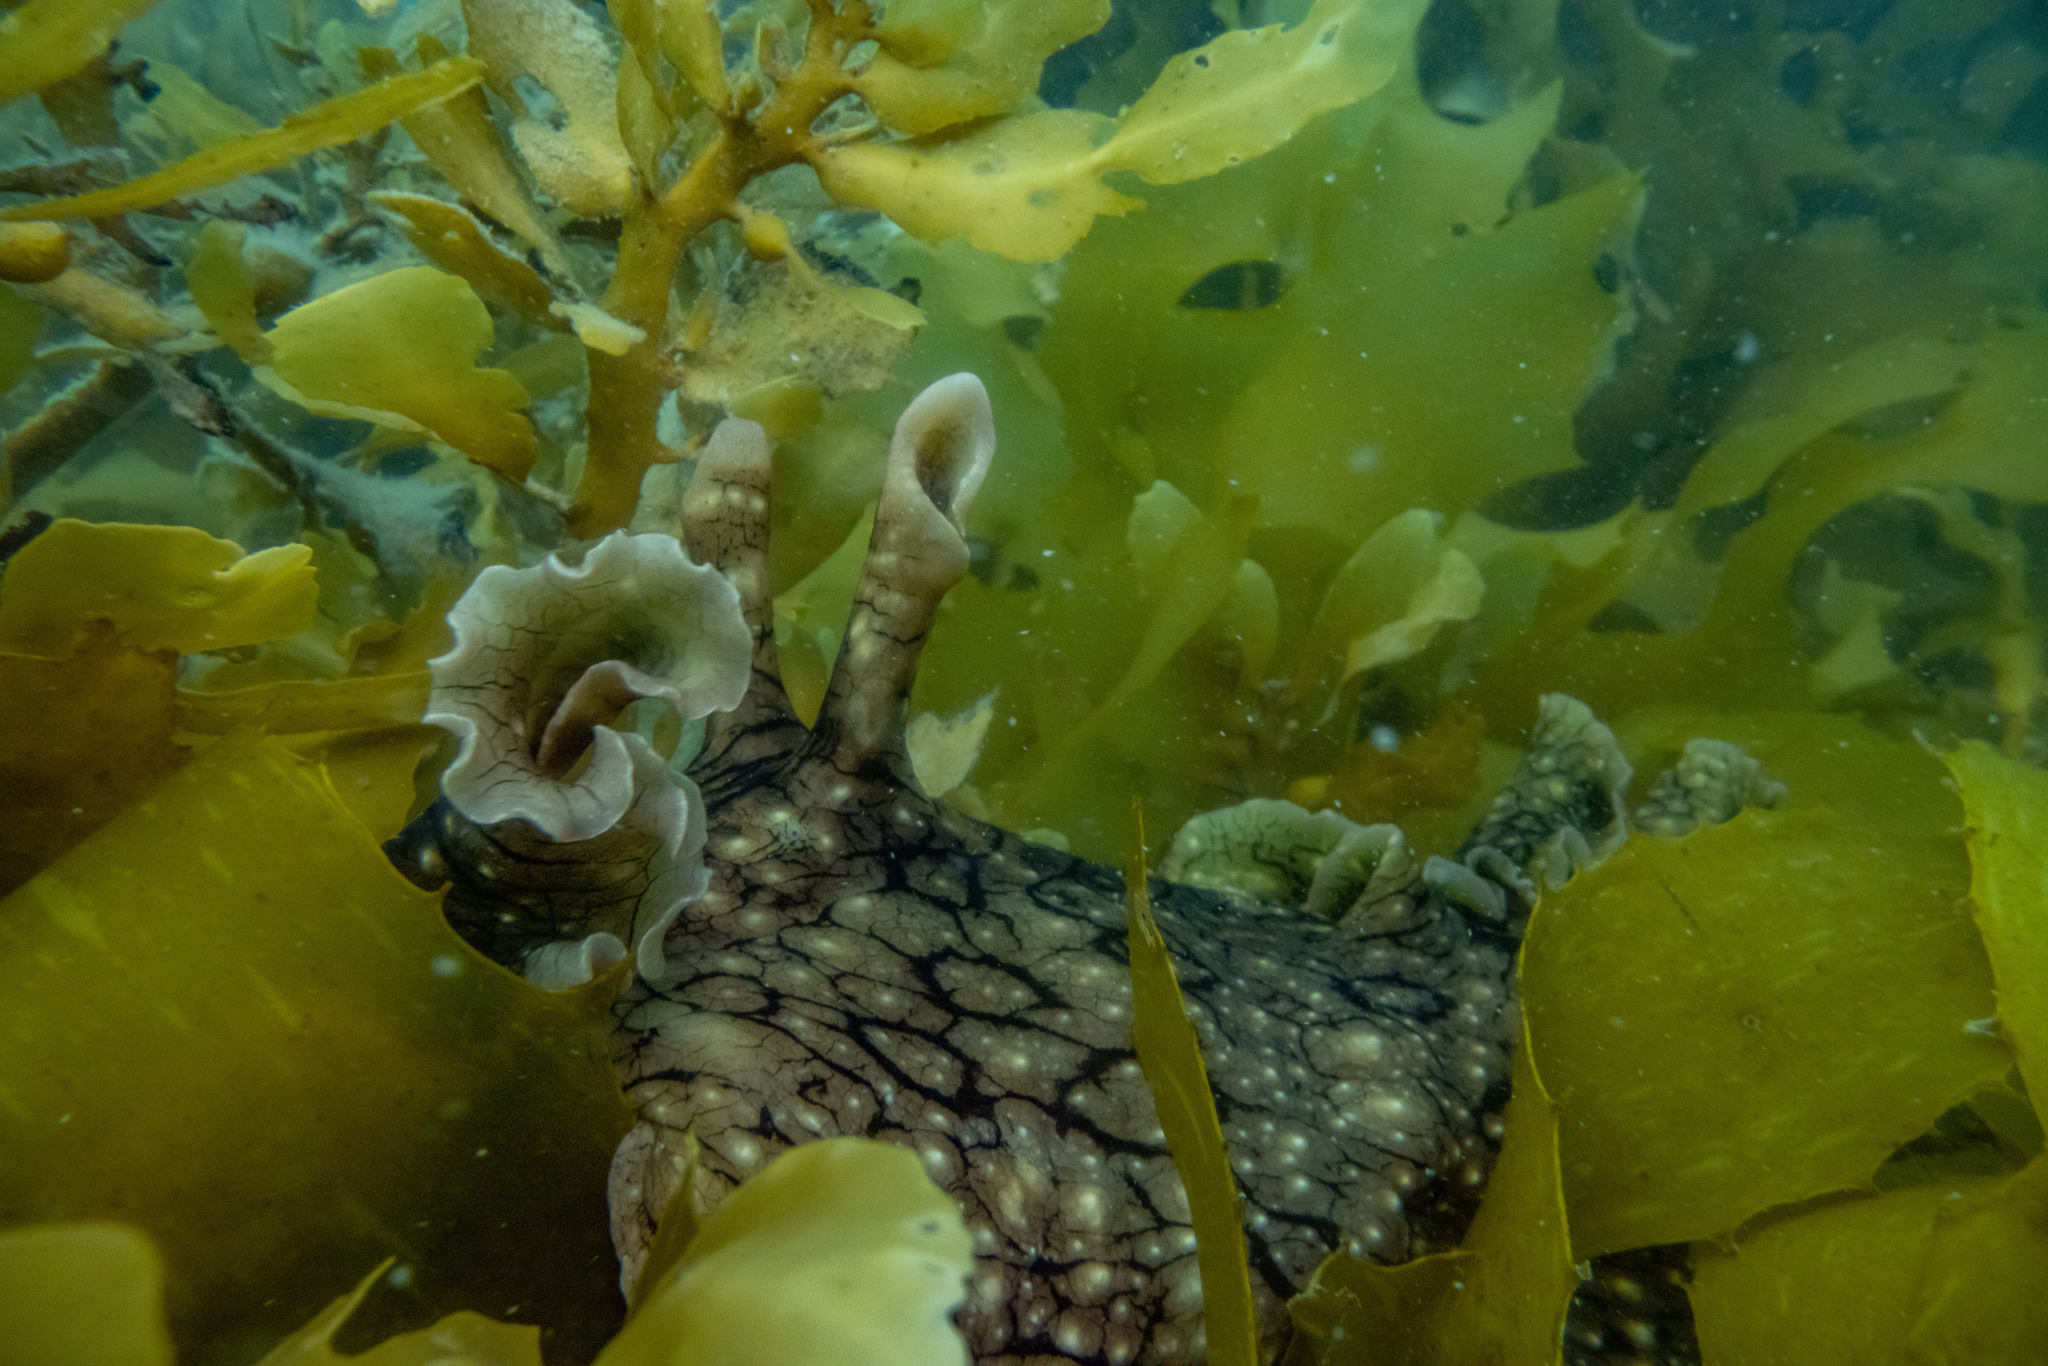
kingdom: Animalia
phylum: Mollusca
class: Gastropoda
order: Aplysiida
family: Aplysiidae
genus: Aplysia
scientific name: Aplysia argus
